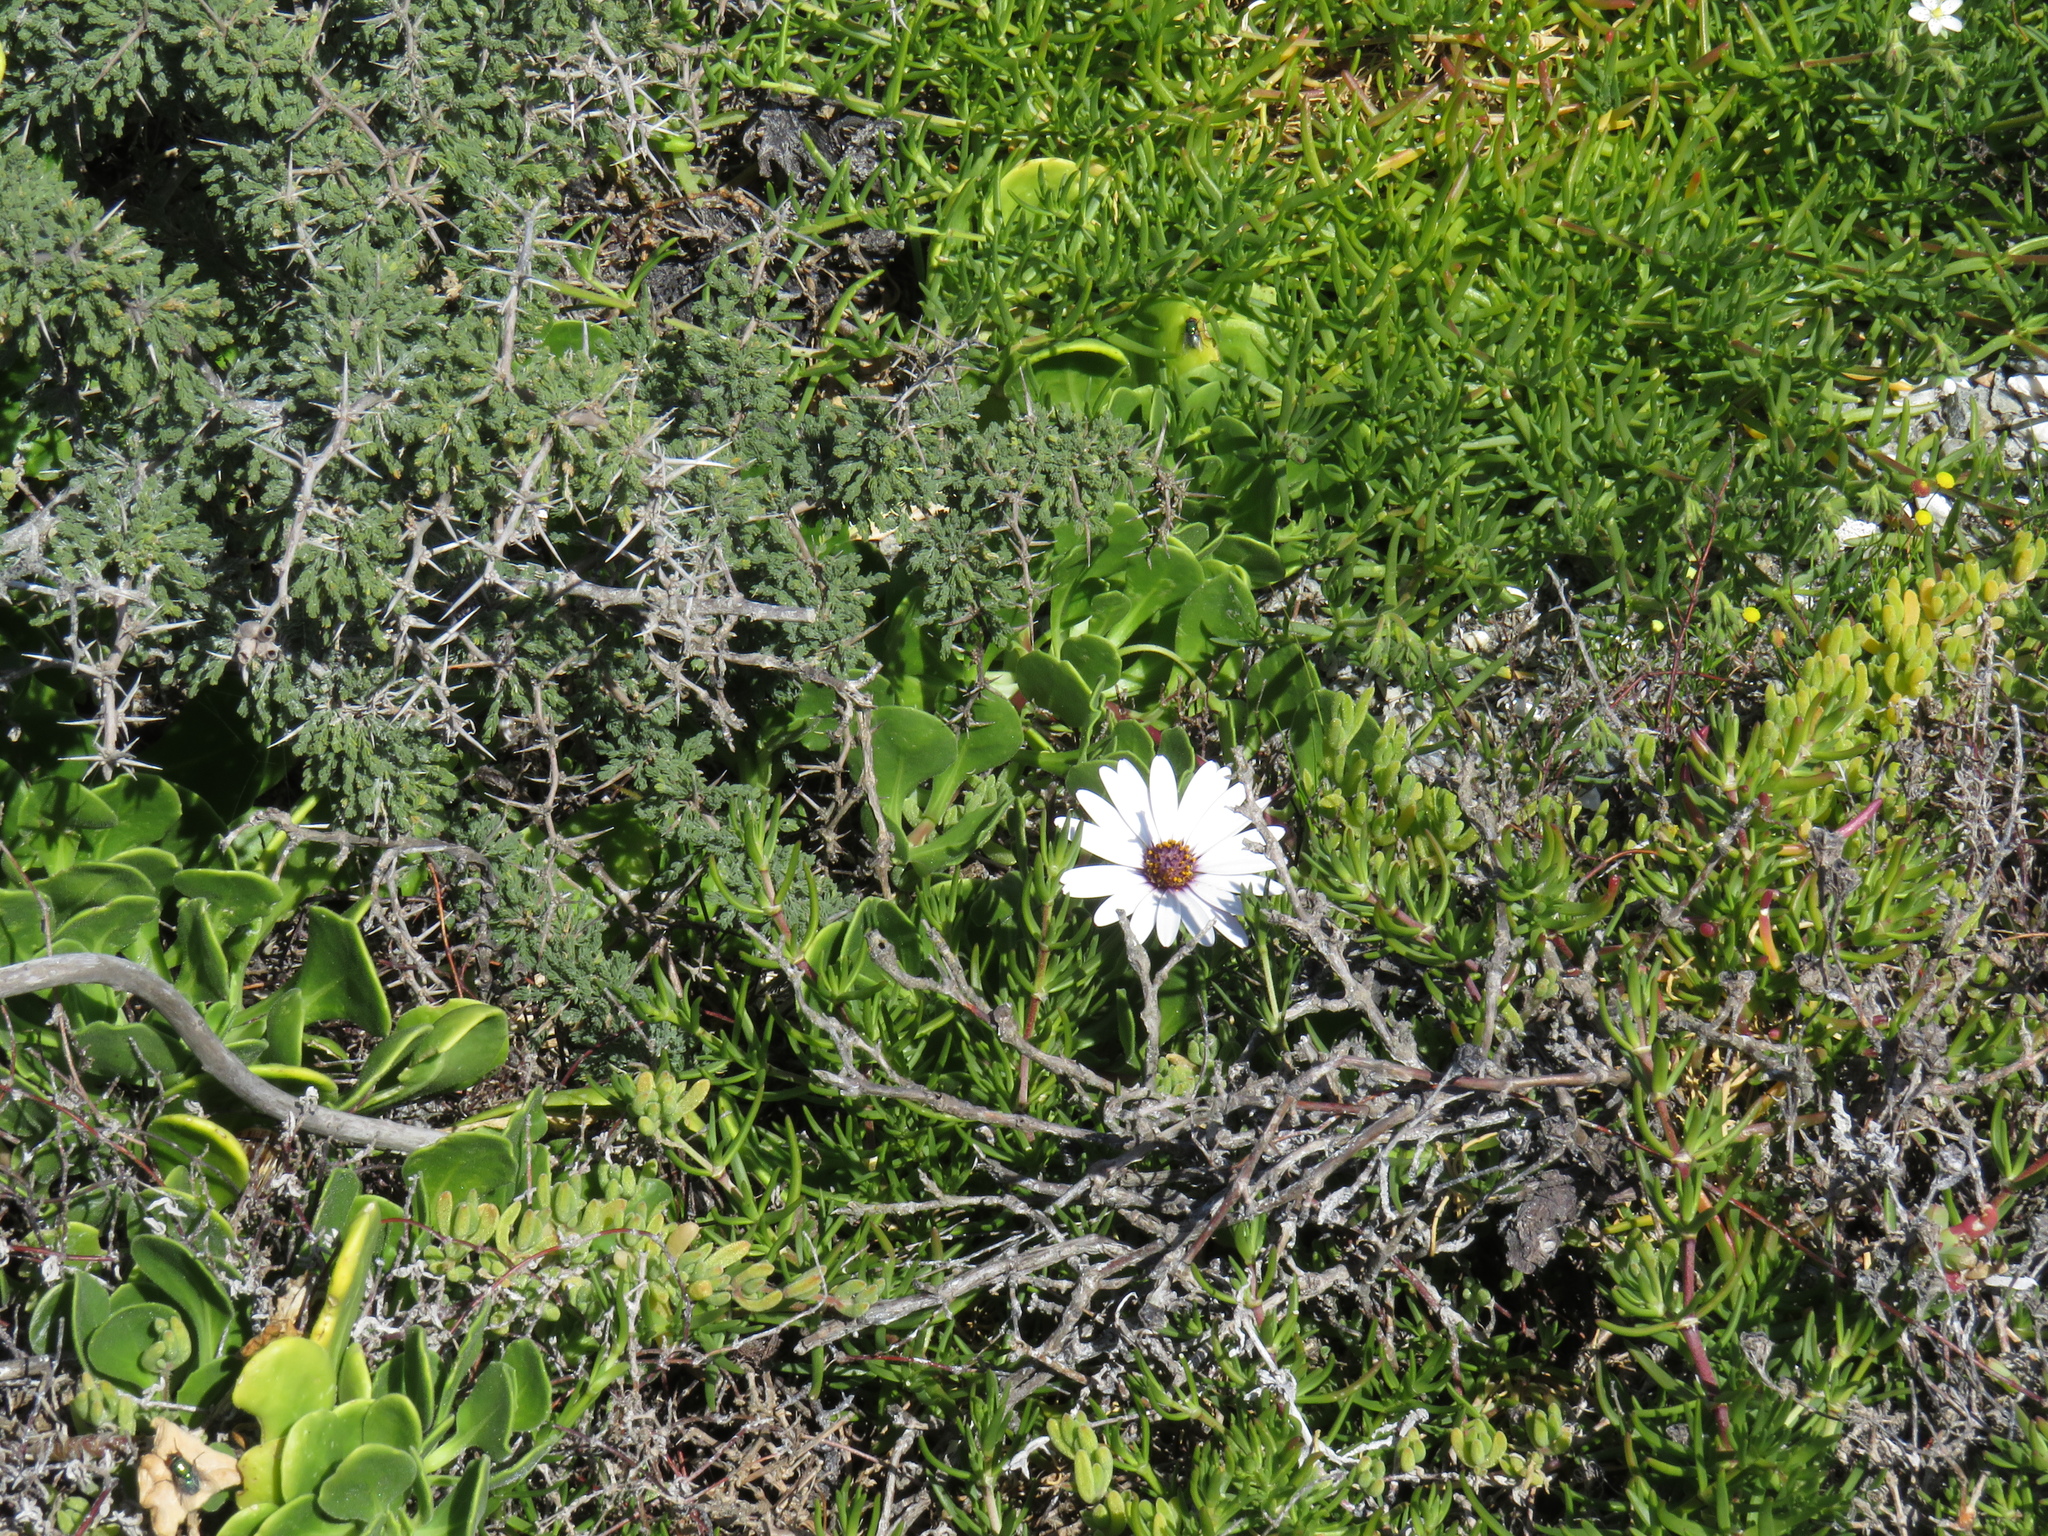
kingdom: Plantae
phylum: Tracheophyta
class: Magnoliopsida
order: Asterales
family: Asteraceae
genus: Dimorphotheca
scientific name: Dimorphotheca fruticosa
